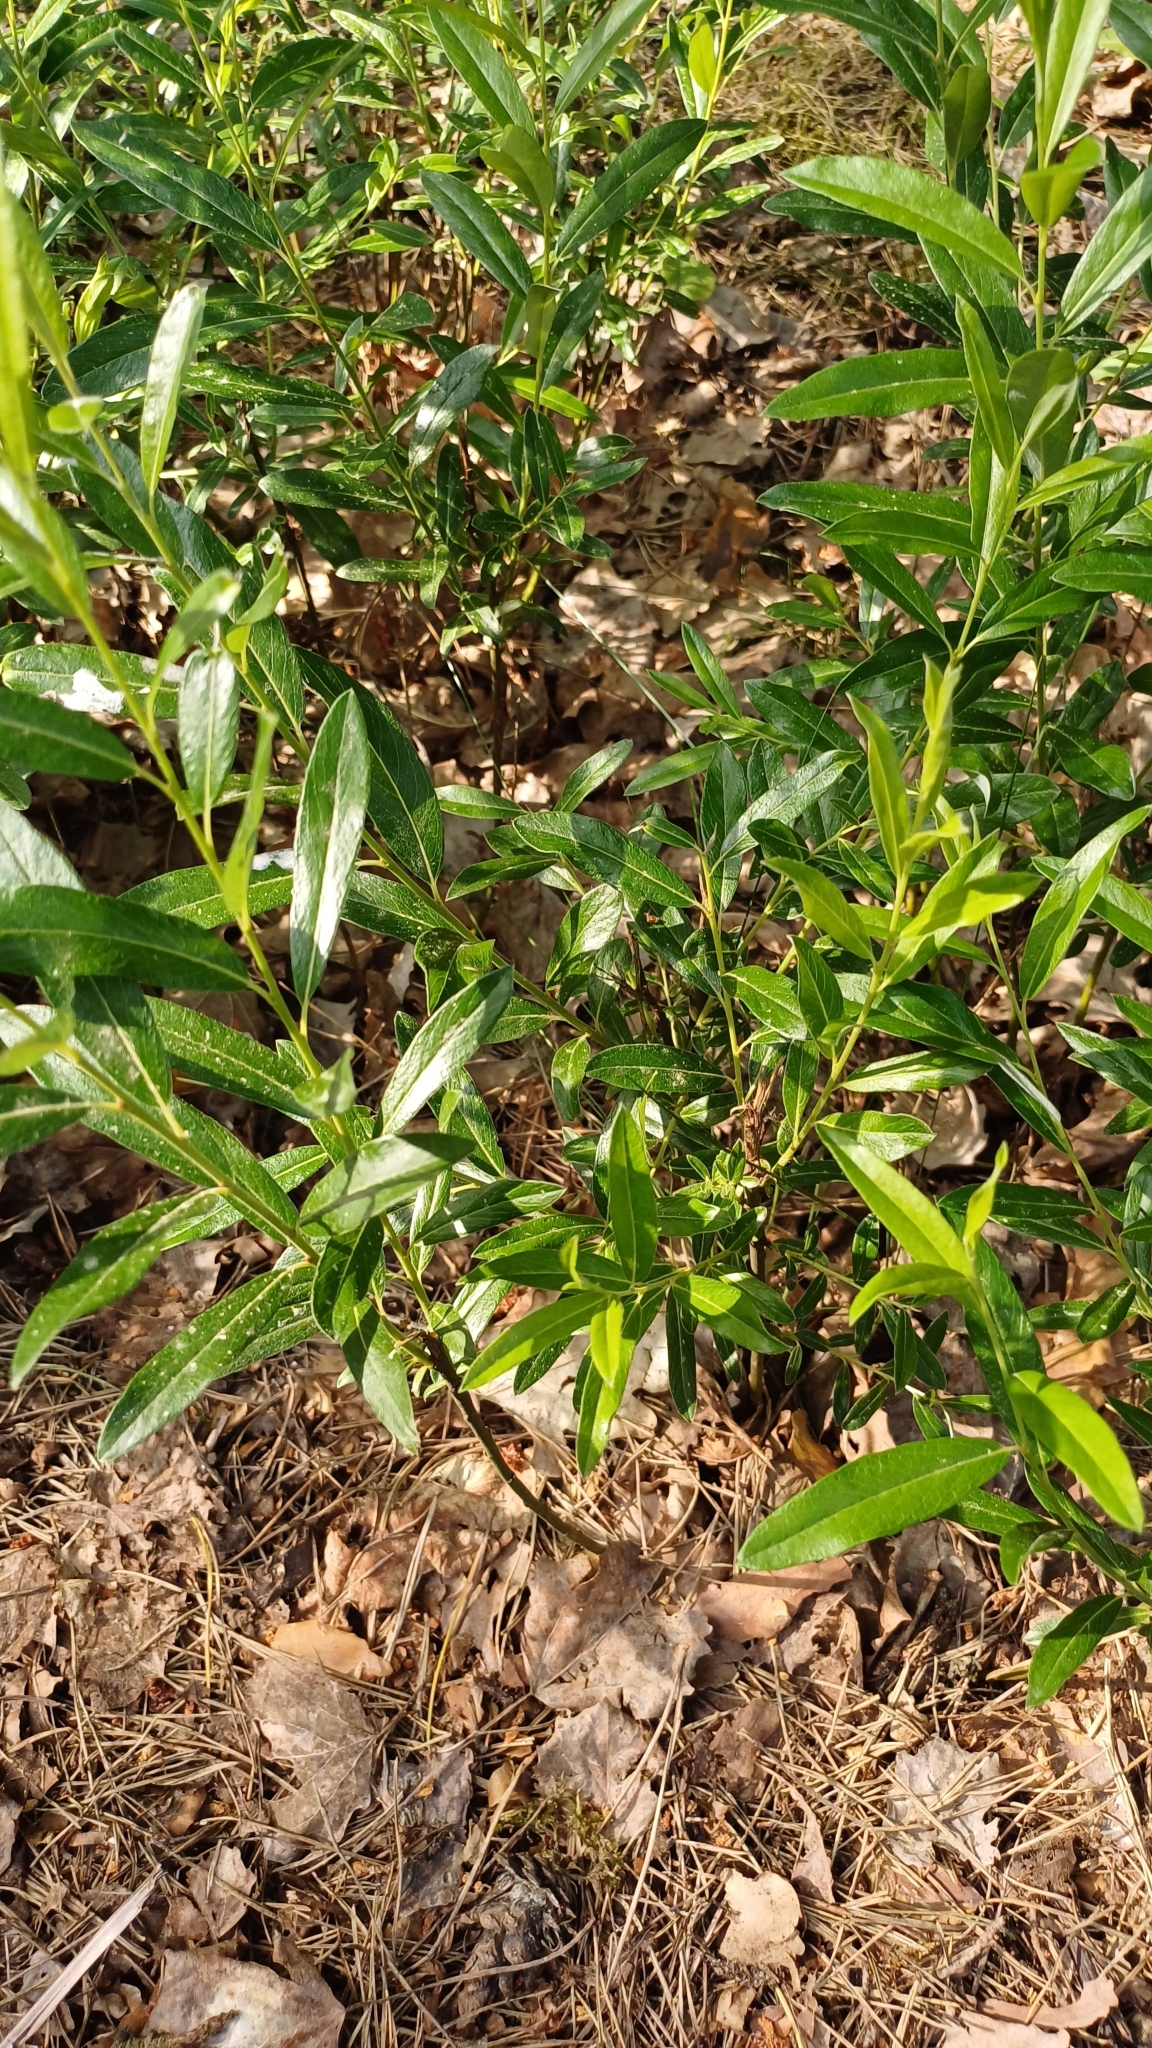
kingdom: Plantae
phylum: Tracheophyta
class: Magnoliopsida
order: Malpighiales
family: Salicaceae
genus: Salix
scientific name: Salix rosmarinifolia
